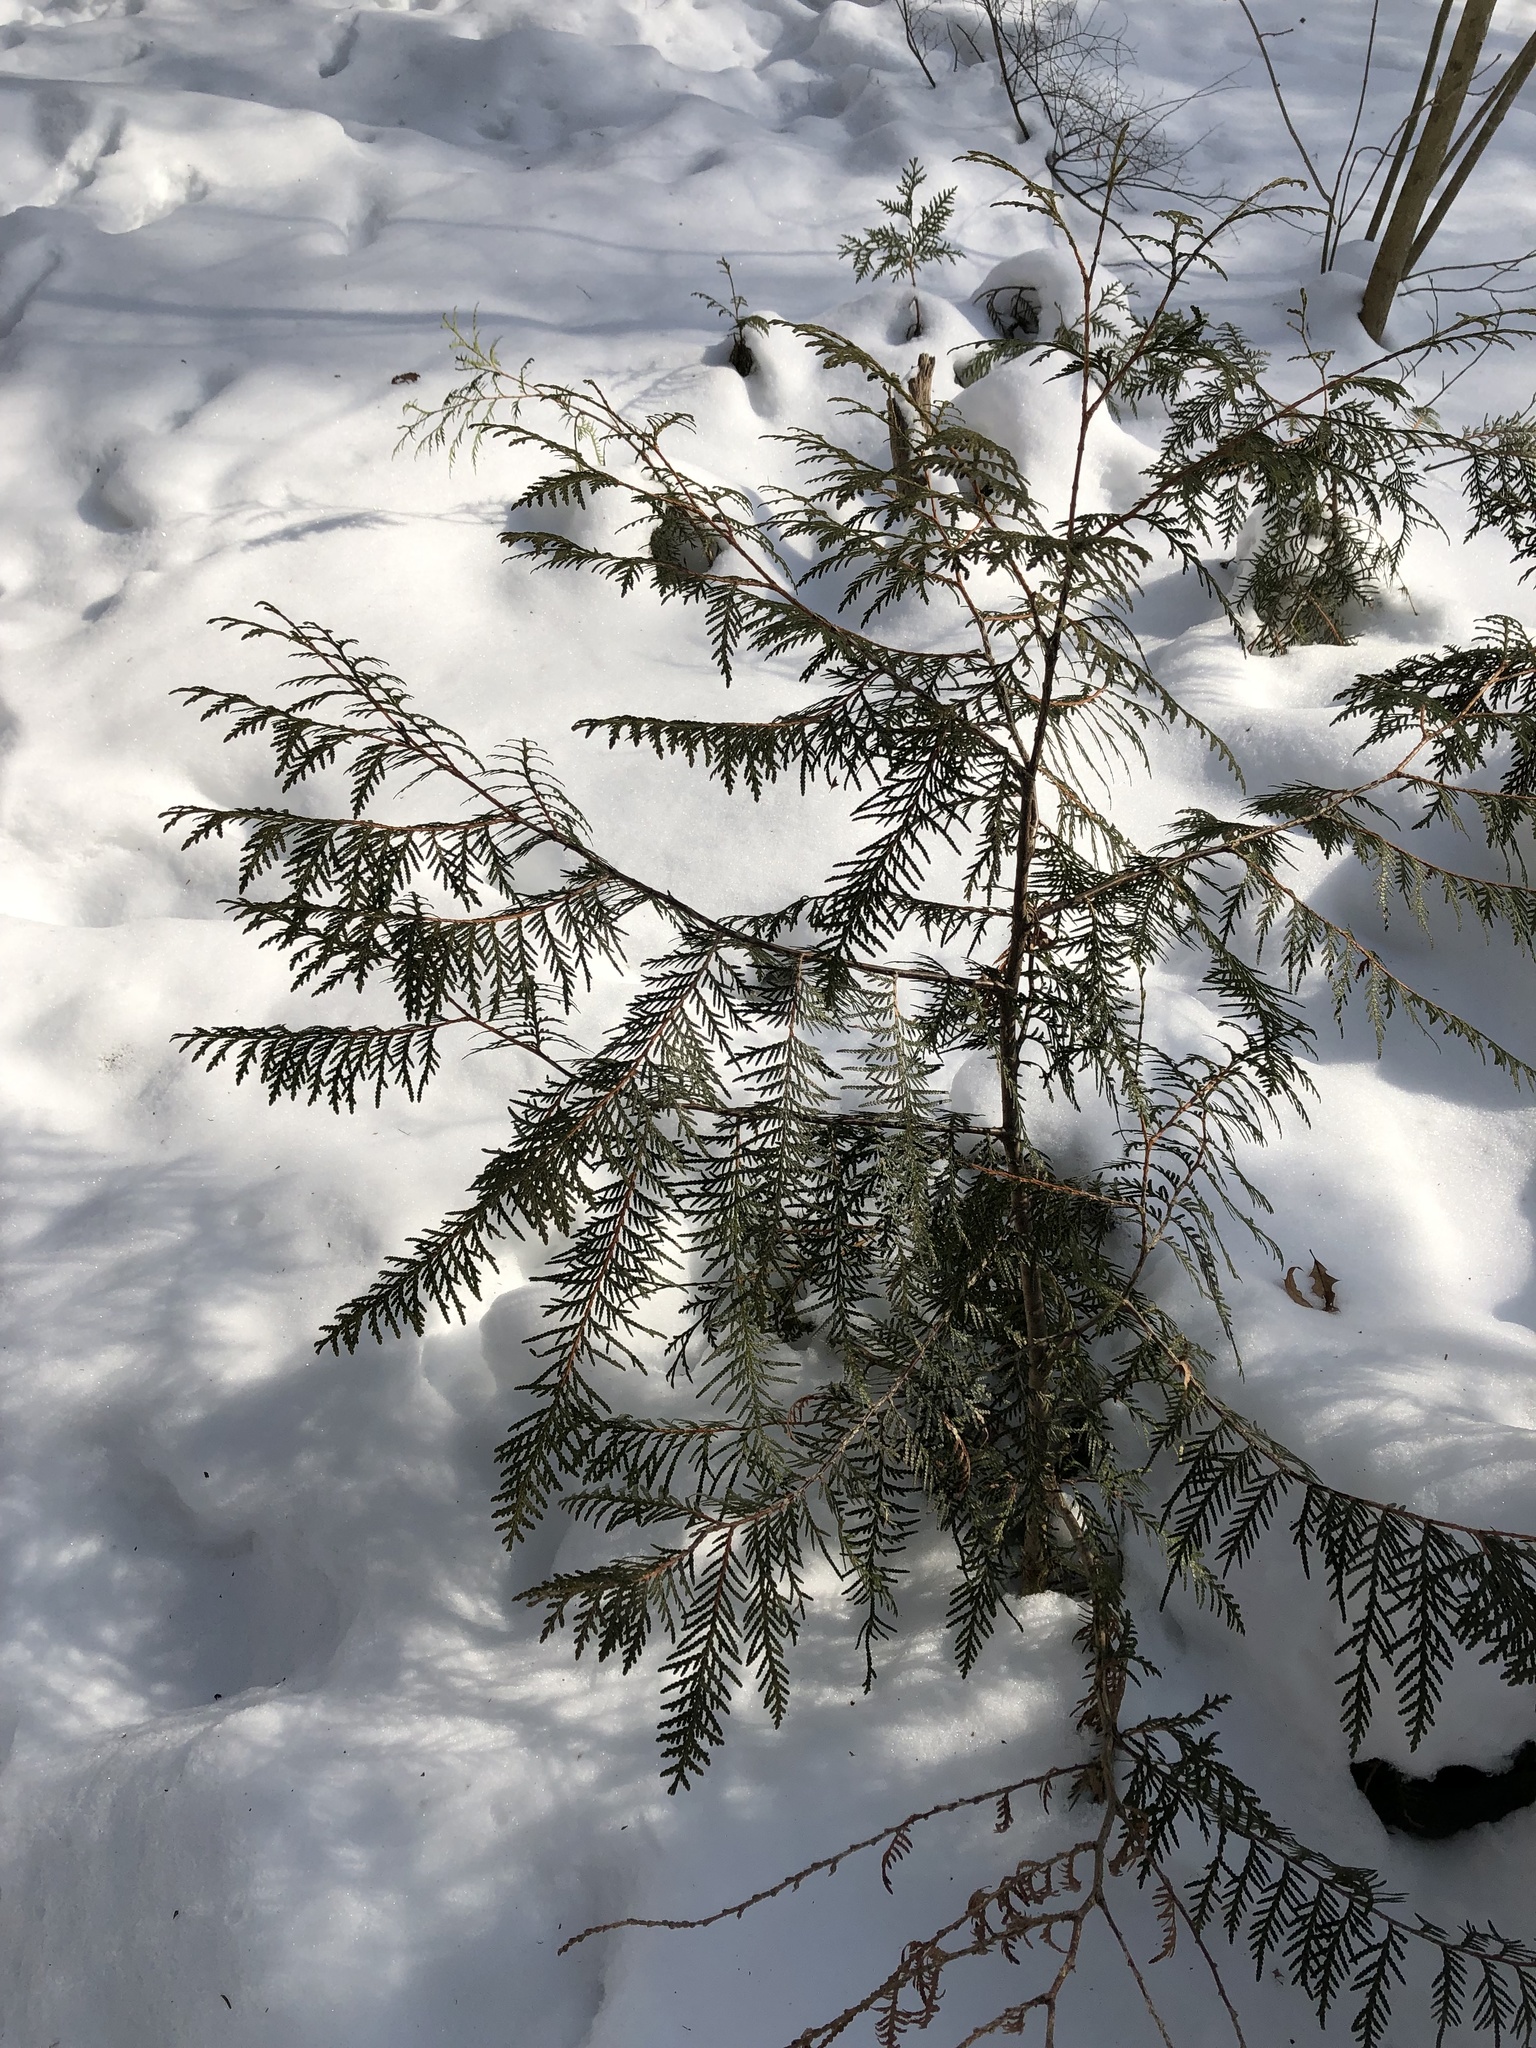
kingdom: Plantae
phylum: Tracheophyta
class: Pinopsida
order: Pinales
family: Cupressaceae
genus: Thuja
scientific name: Thuja occidentalis
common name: Northern white-cedar
